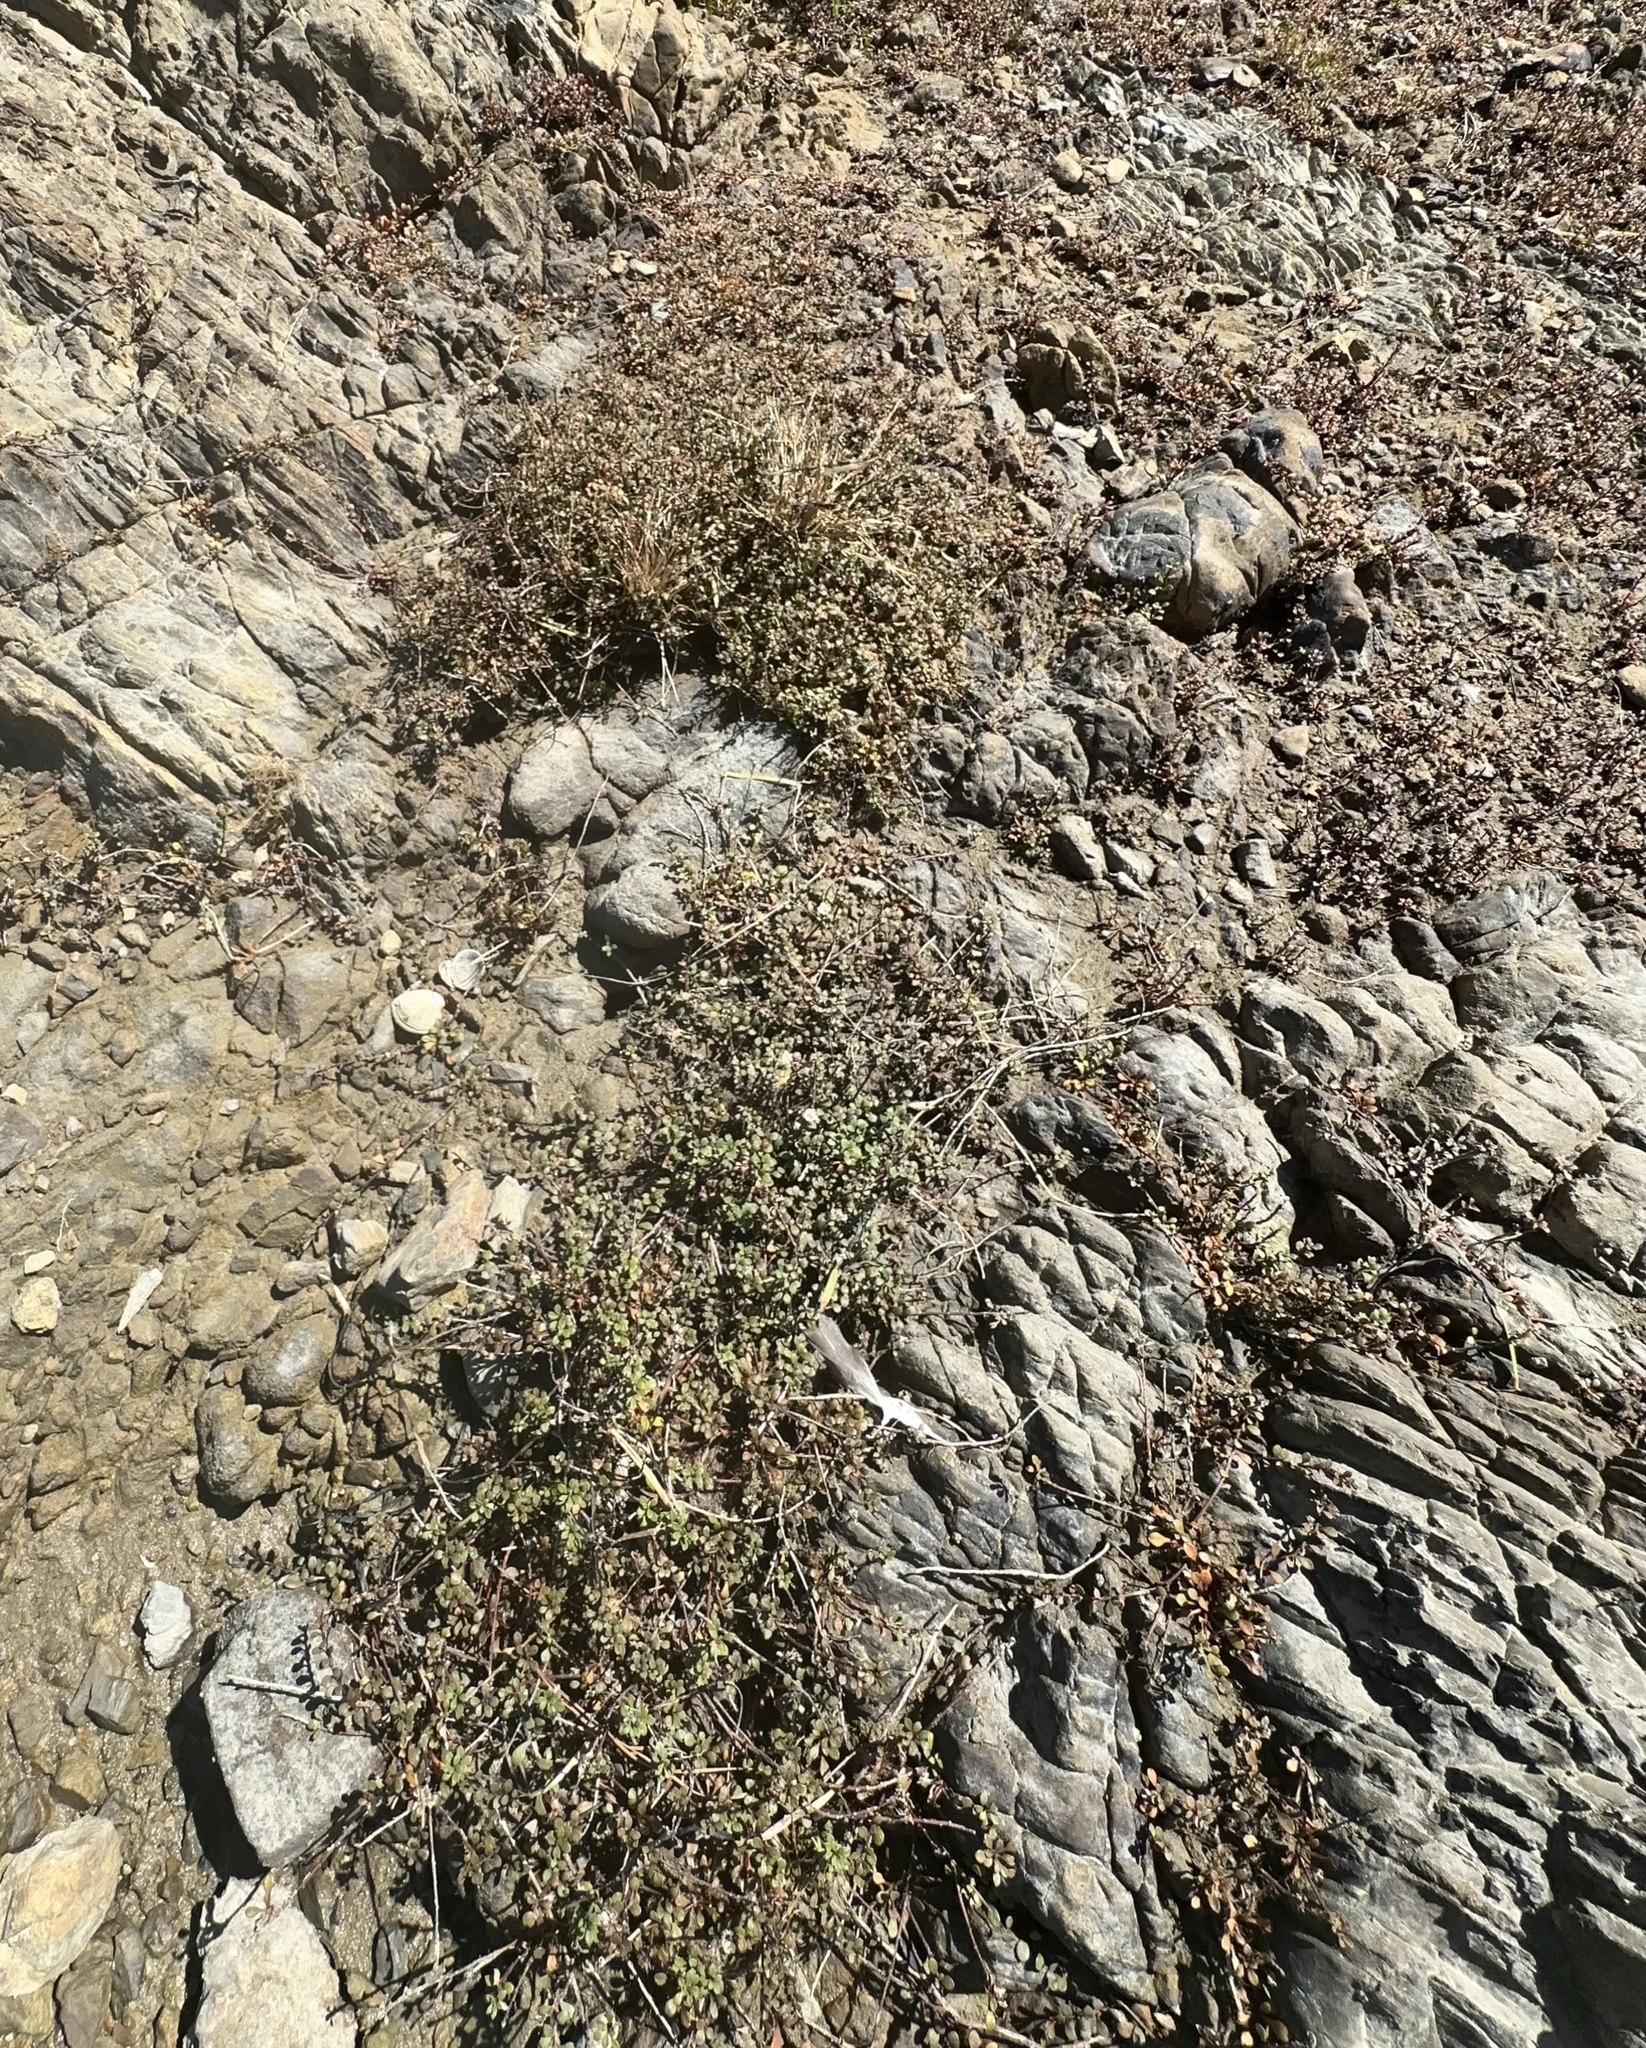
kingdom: Plantae
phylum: Tracheophyta
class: Magnoliopsida
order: Ericales
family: Primulaceae
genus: Samolus
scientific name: Samolus repens
